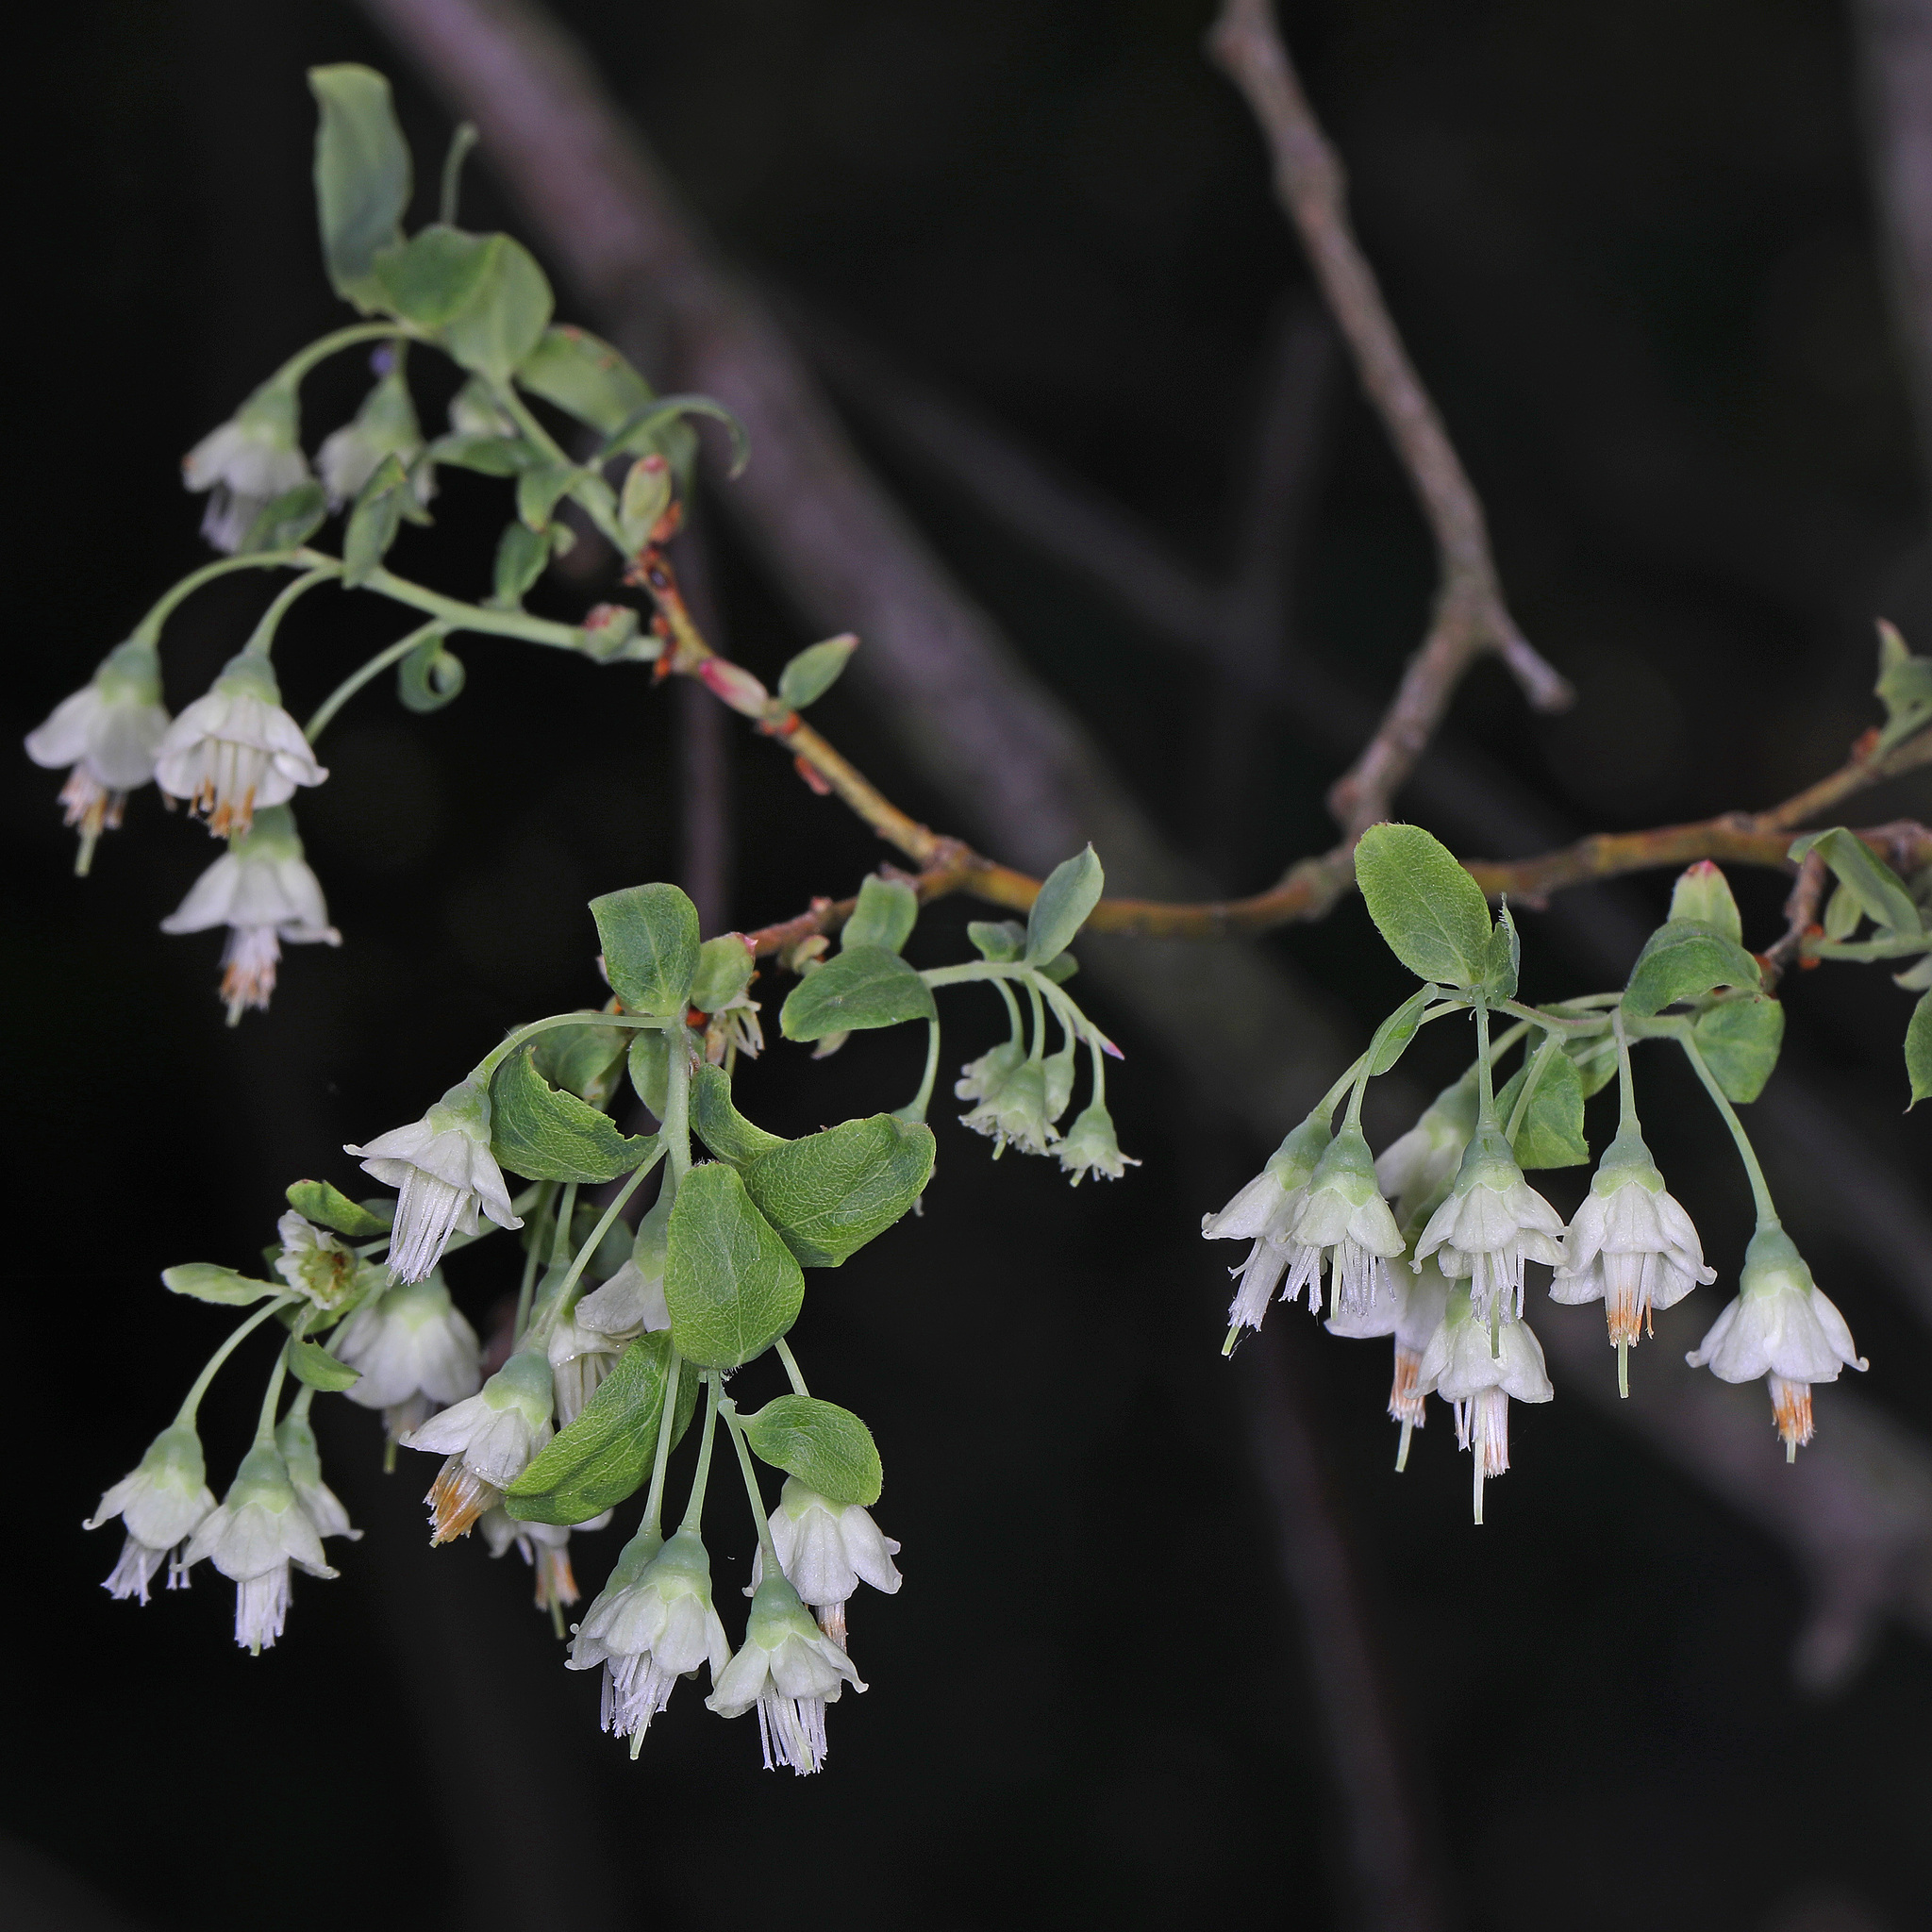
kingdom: Plantae
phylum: Tracheophyta
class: Magnoliopsida
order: Ericales
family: Ericaceae
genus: Vaccinium
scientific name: Vaccinium stamineum
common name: Deerberry
